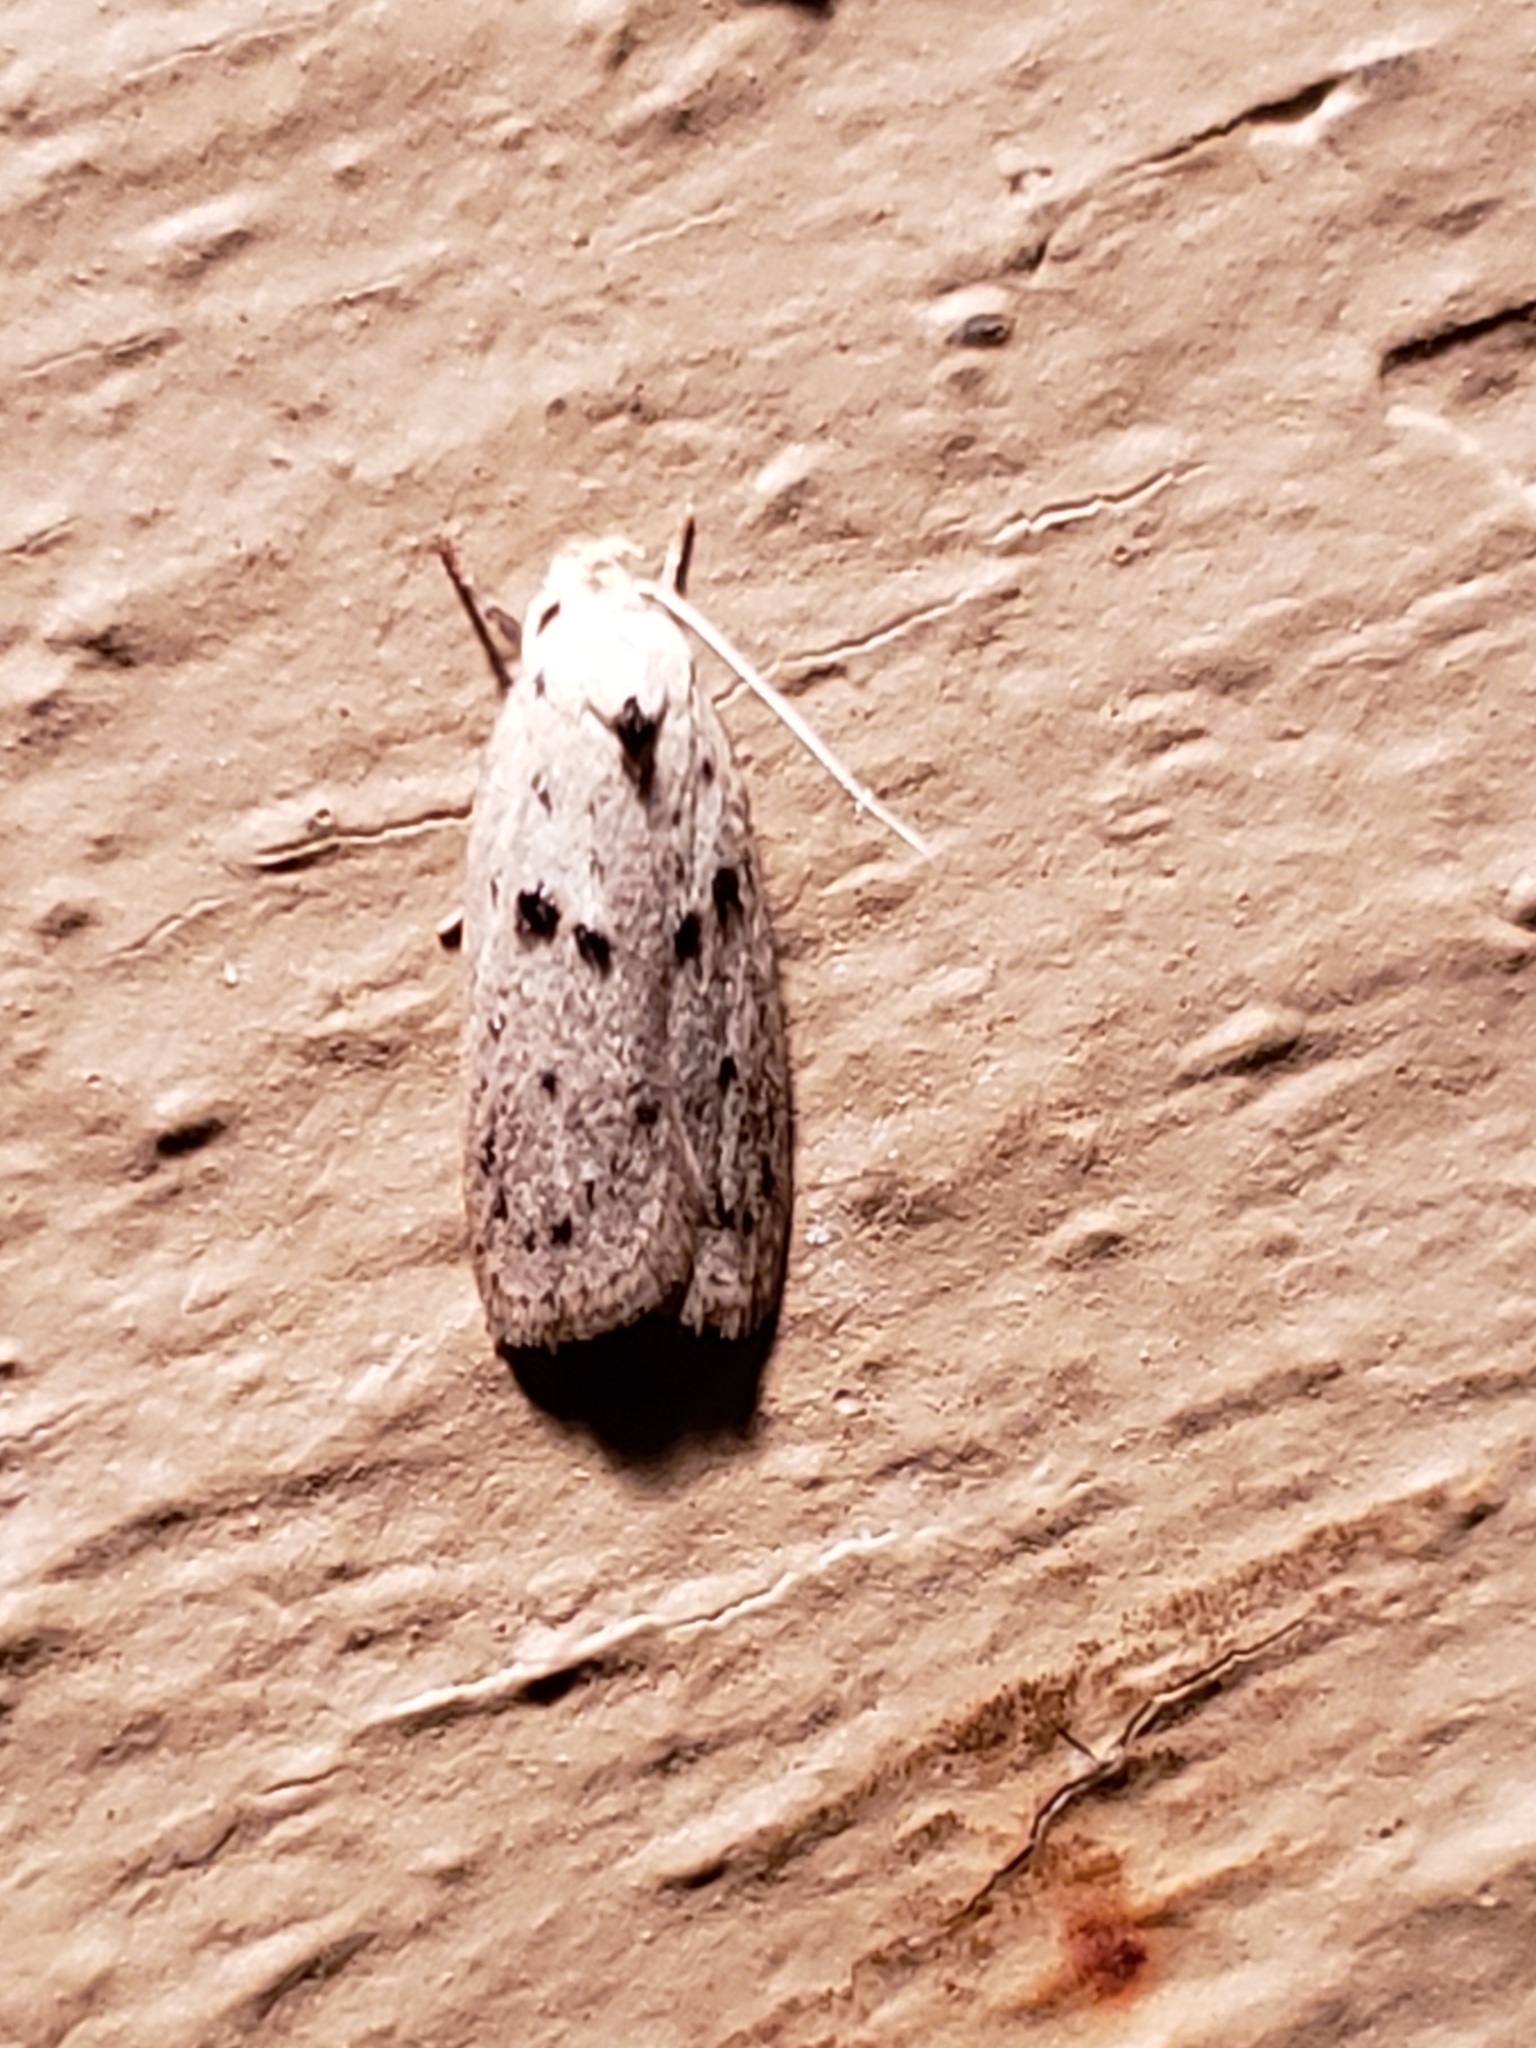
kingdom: Animalia
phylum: Arthropoda
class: Insecta
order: Lepidoptera
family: Peleopodidae
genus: Scythropiodes
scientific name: Scythropiodes issikii
